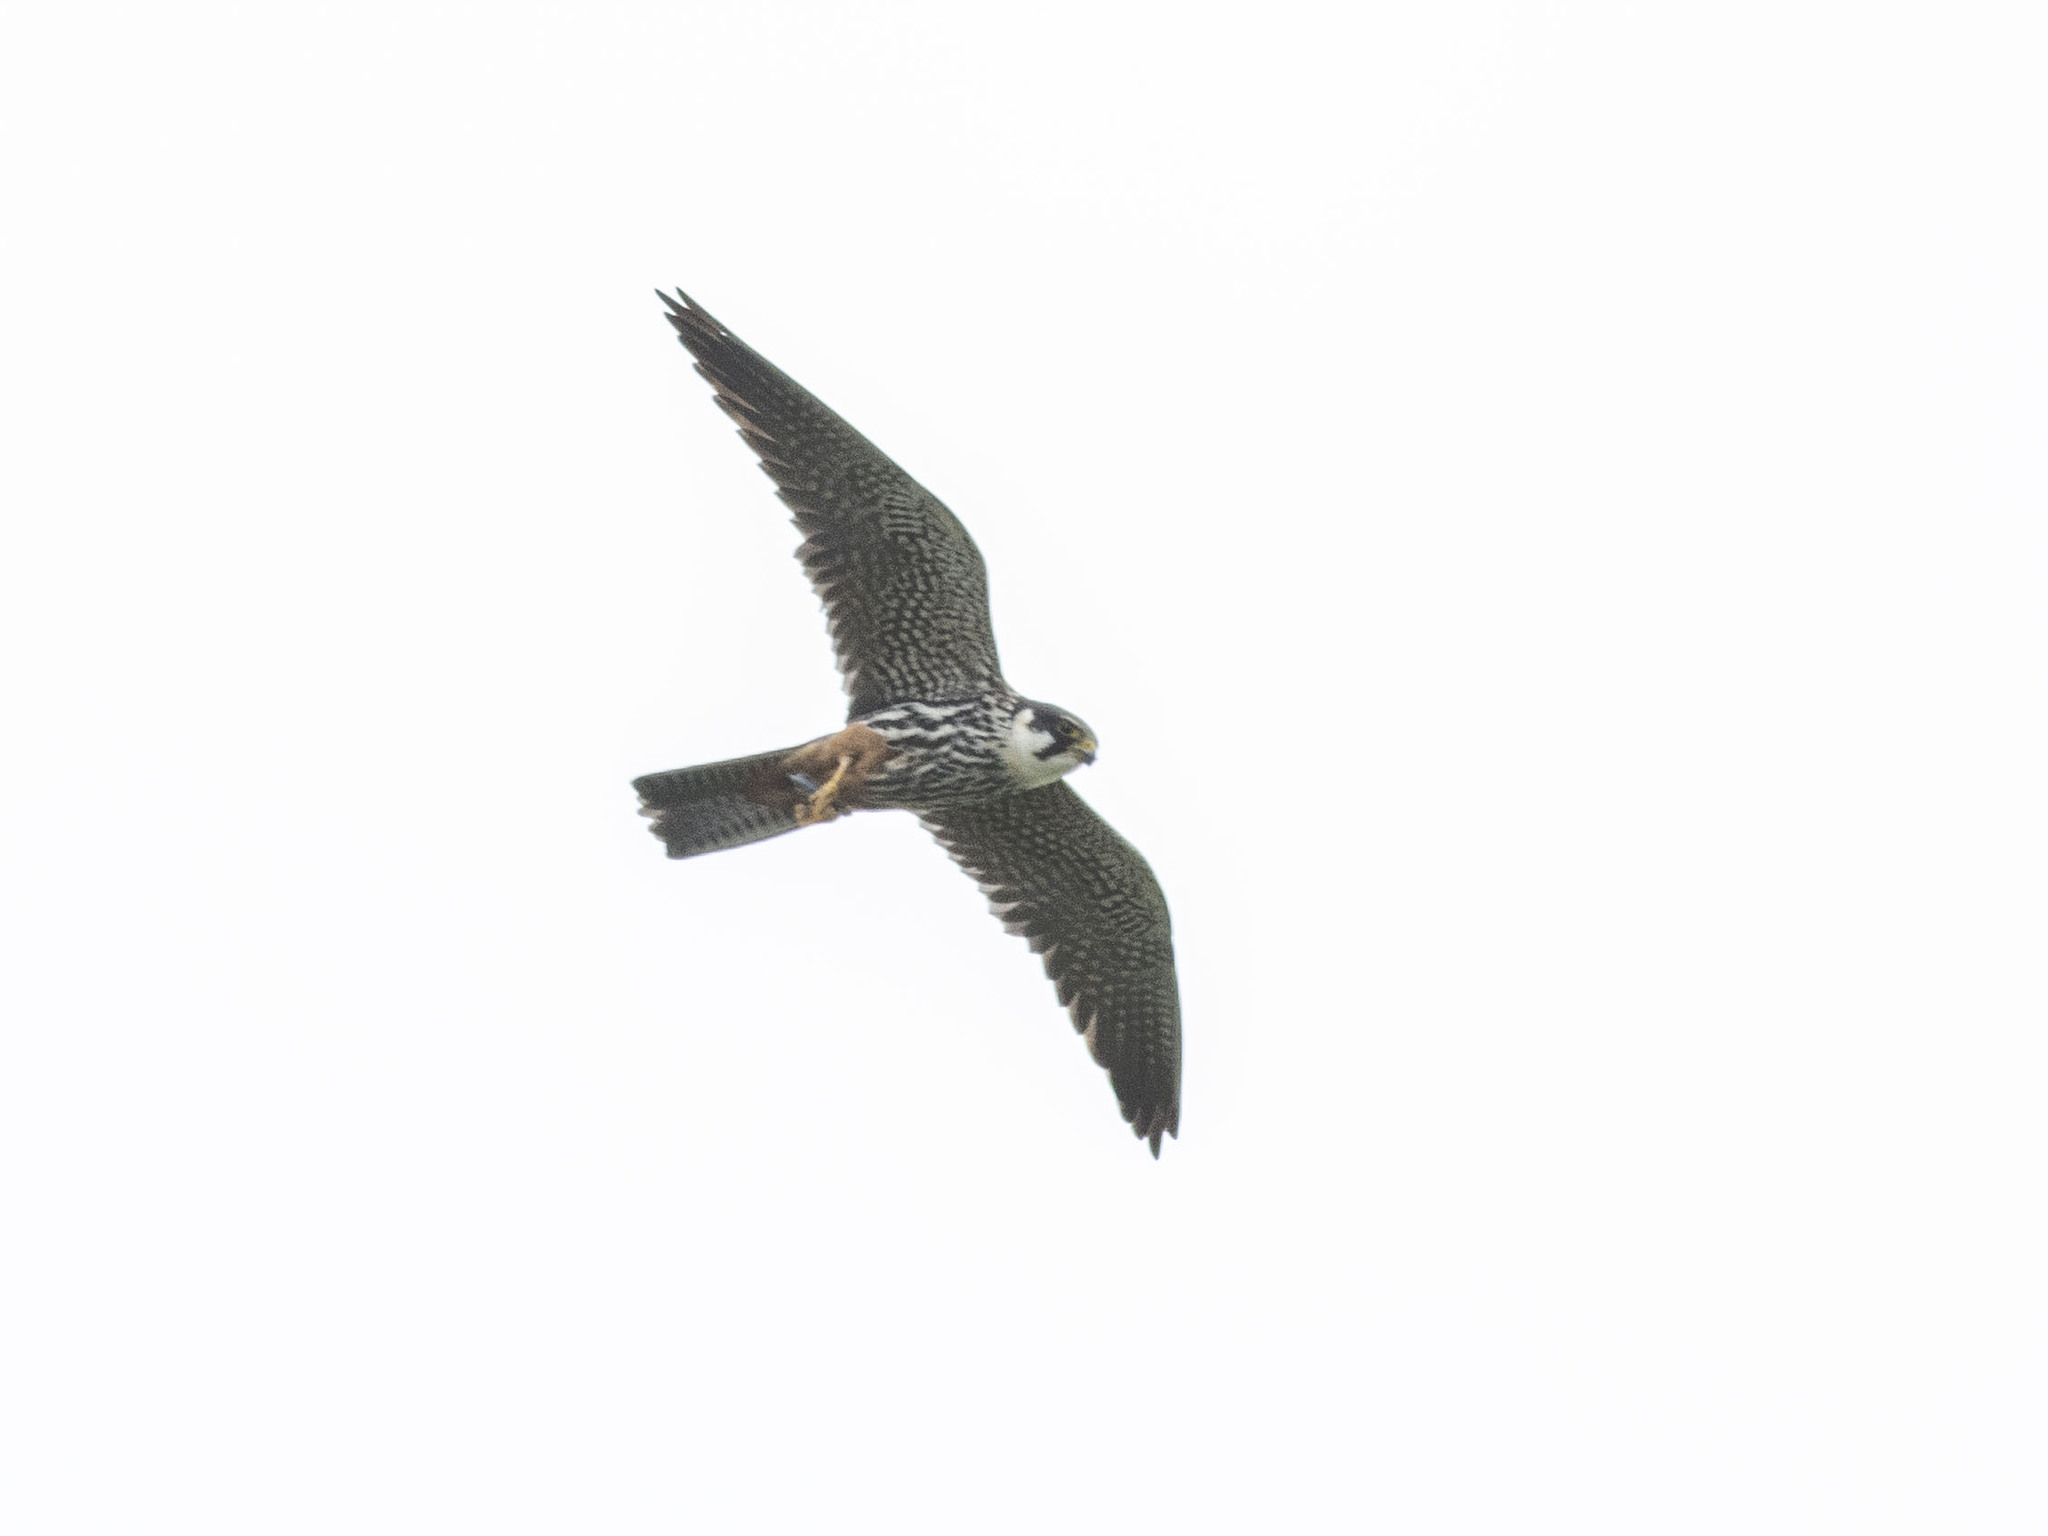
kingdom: Animalia
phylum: Chordata
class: Aves
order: Falconiformes
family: Falconidae
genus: Falco
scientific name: Falco subbuteo
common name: Eurasian hobby
